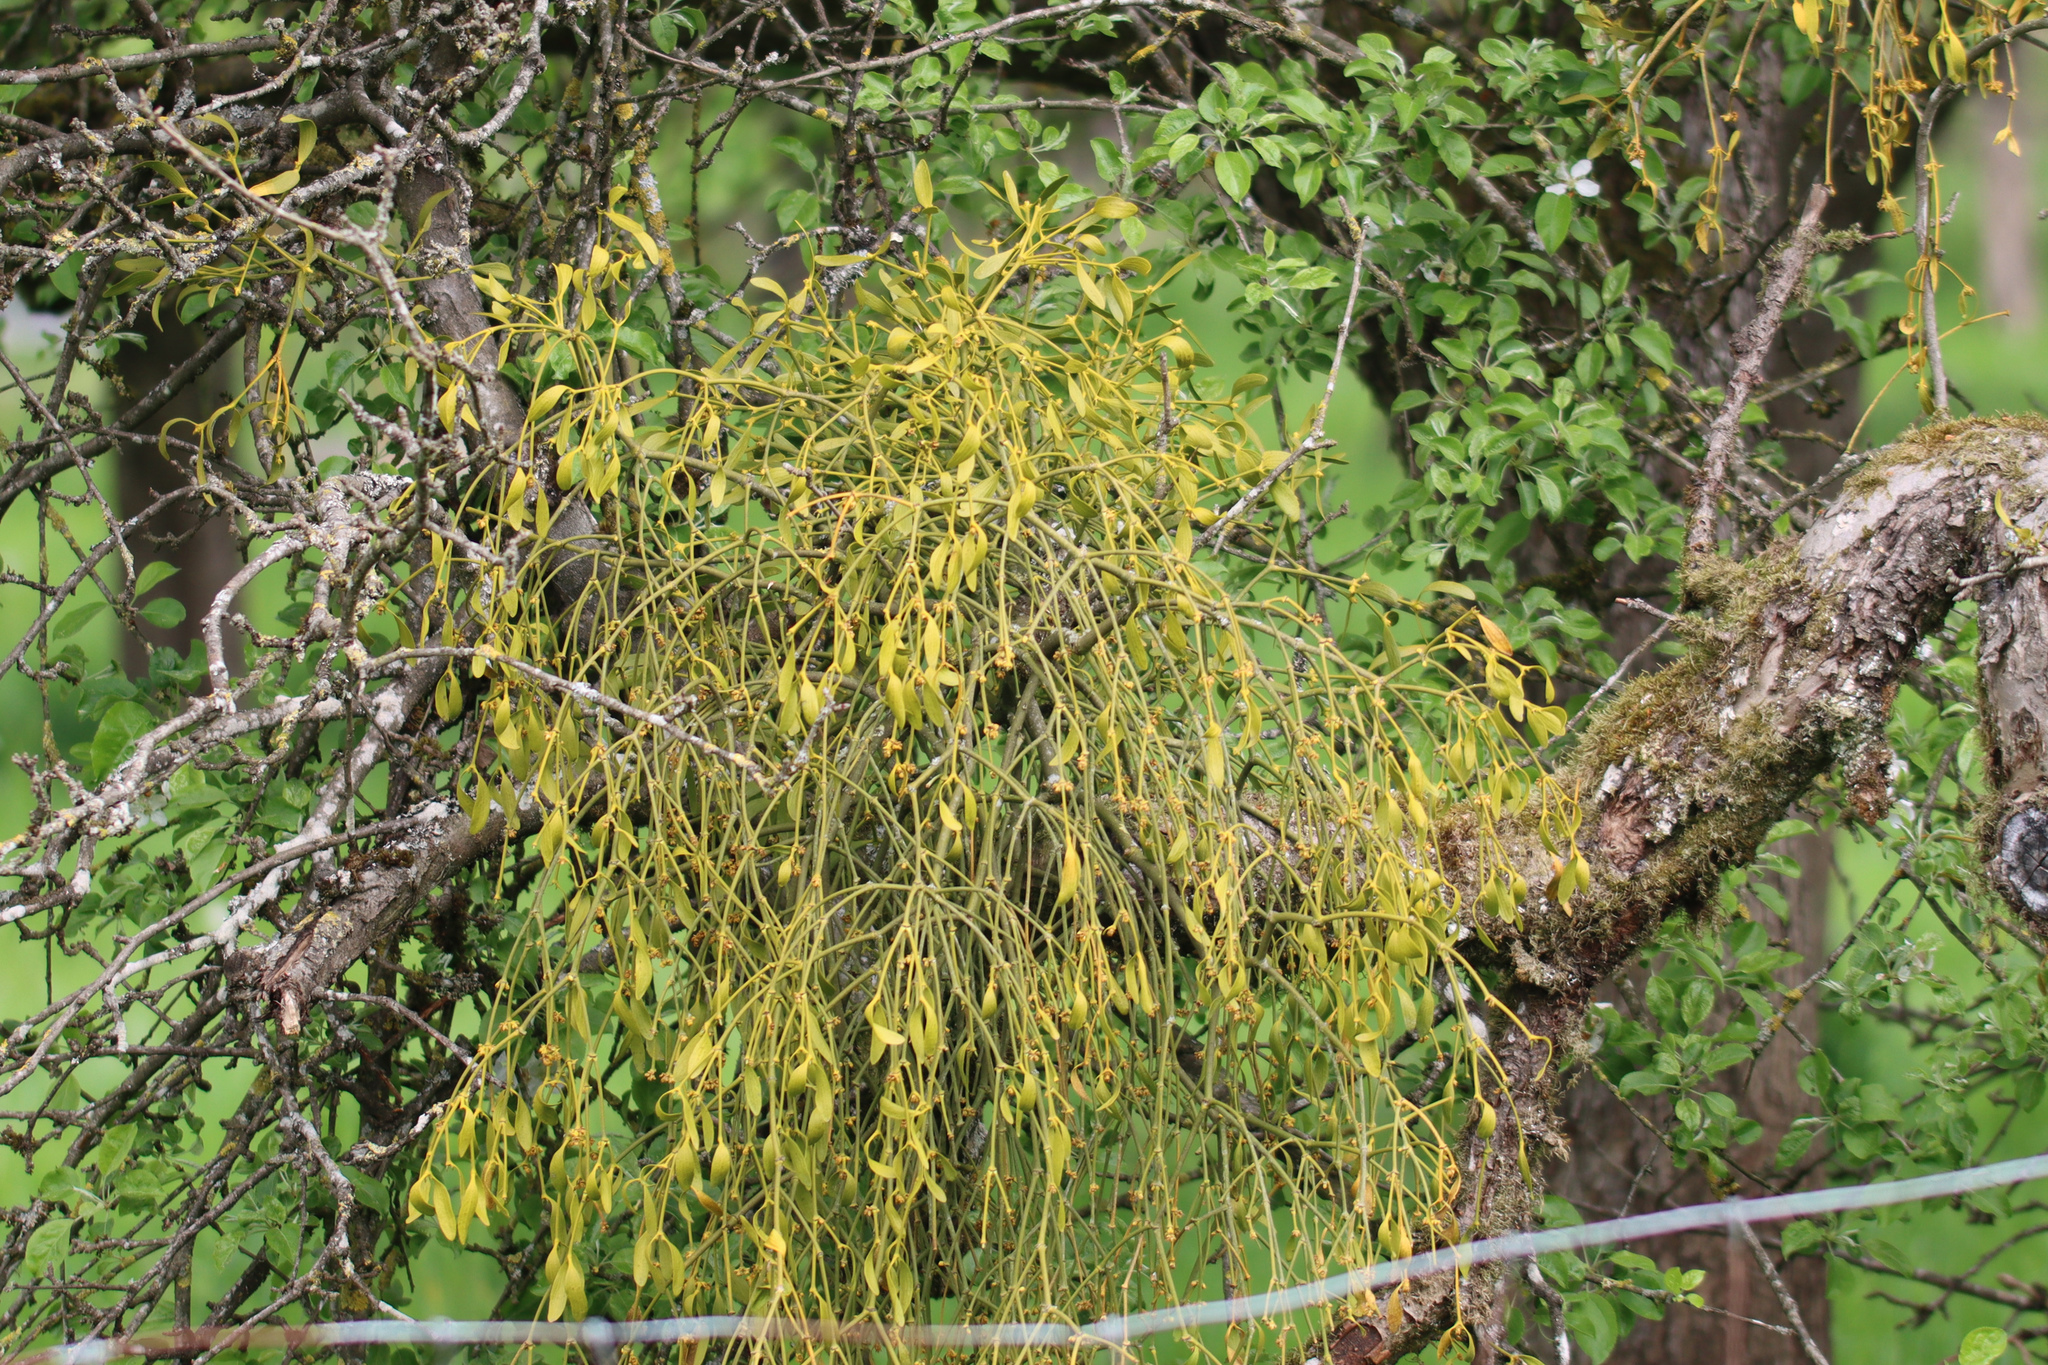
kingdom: Plantae
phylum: Tracheophyta
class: Magnoliopsida
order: Santalales
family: Viscaceae
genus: Viscum
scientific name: Viscum album
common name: Mistletoe
